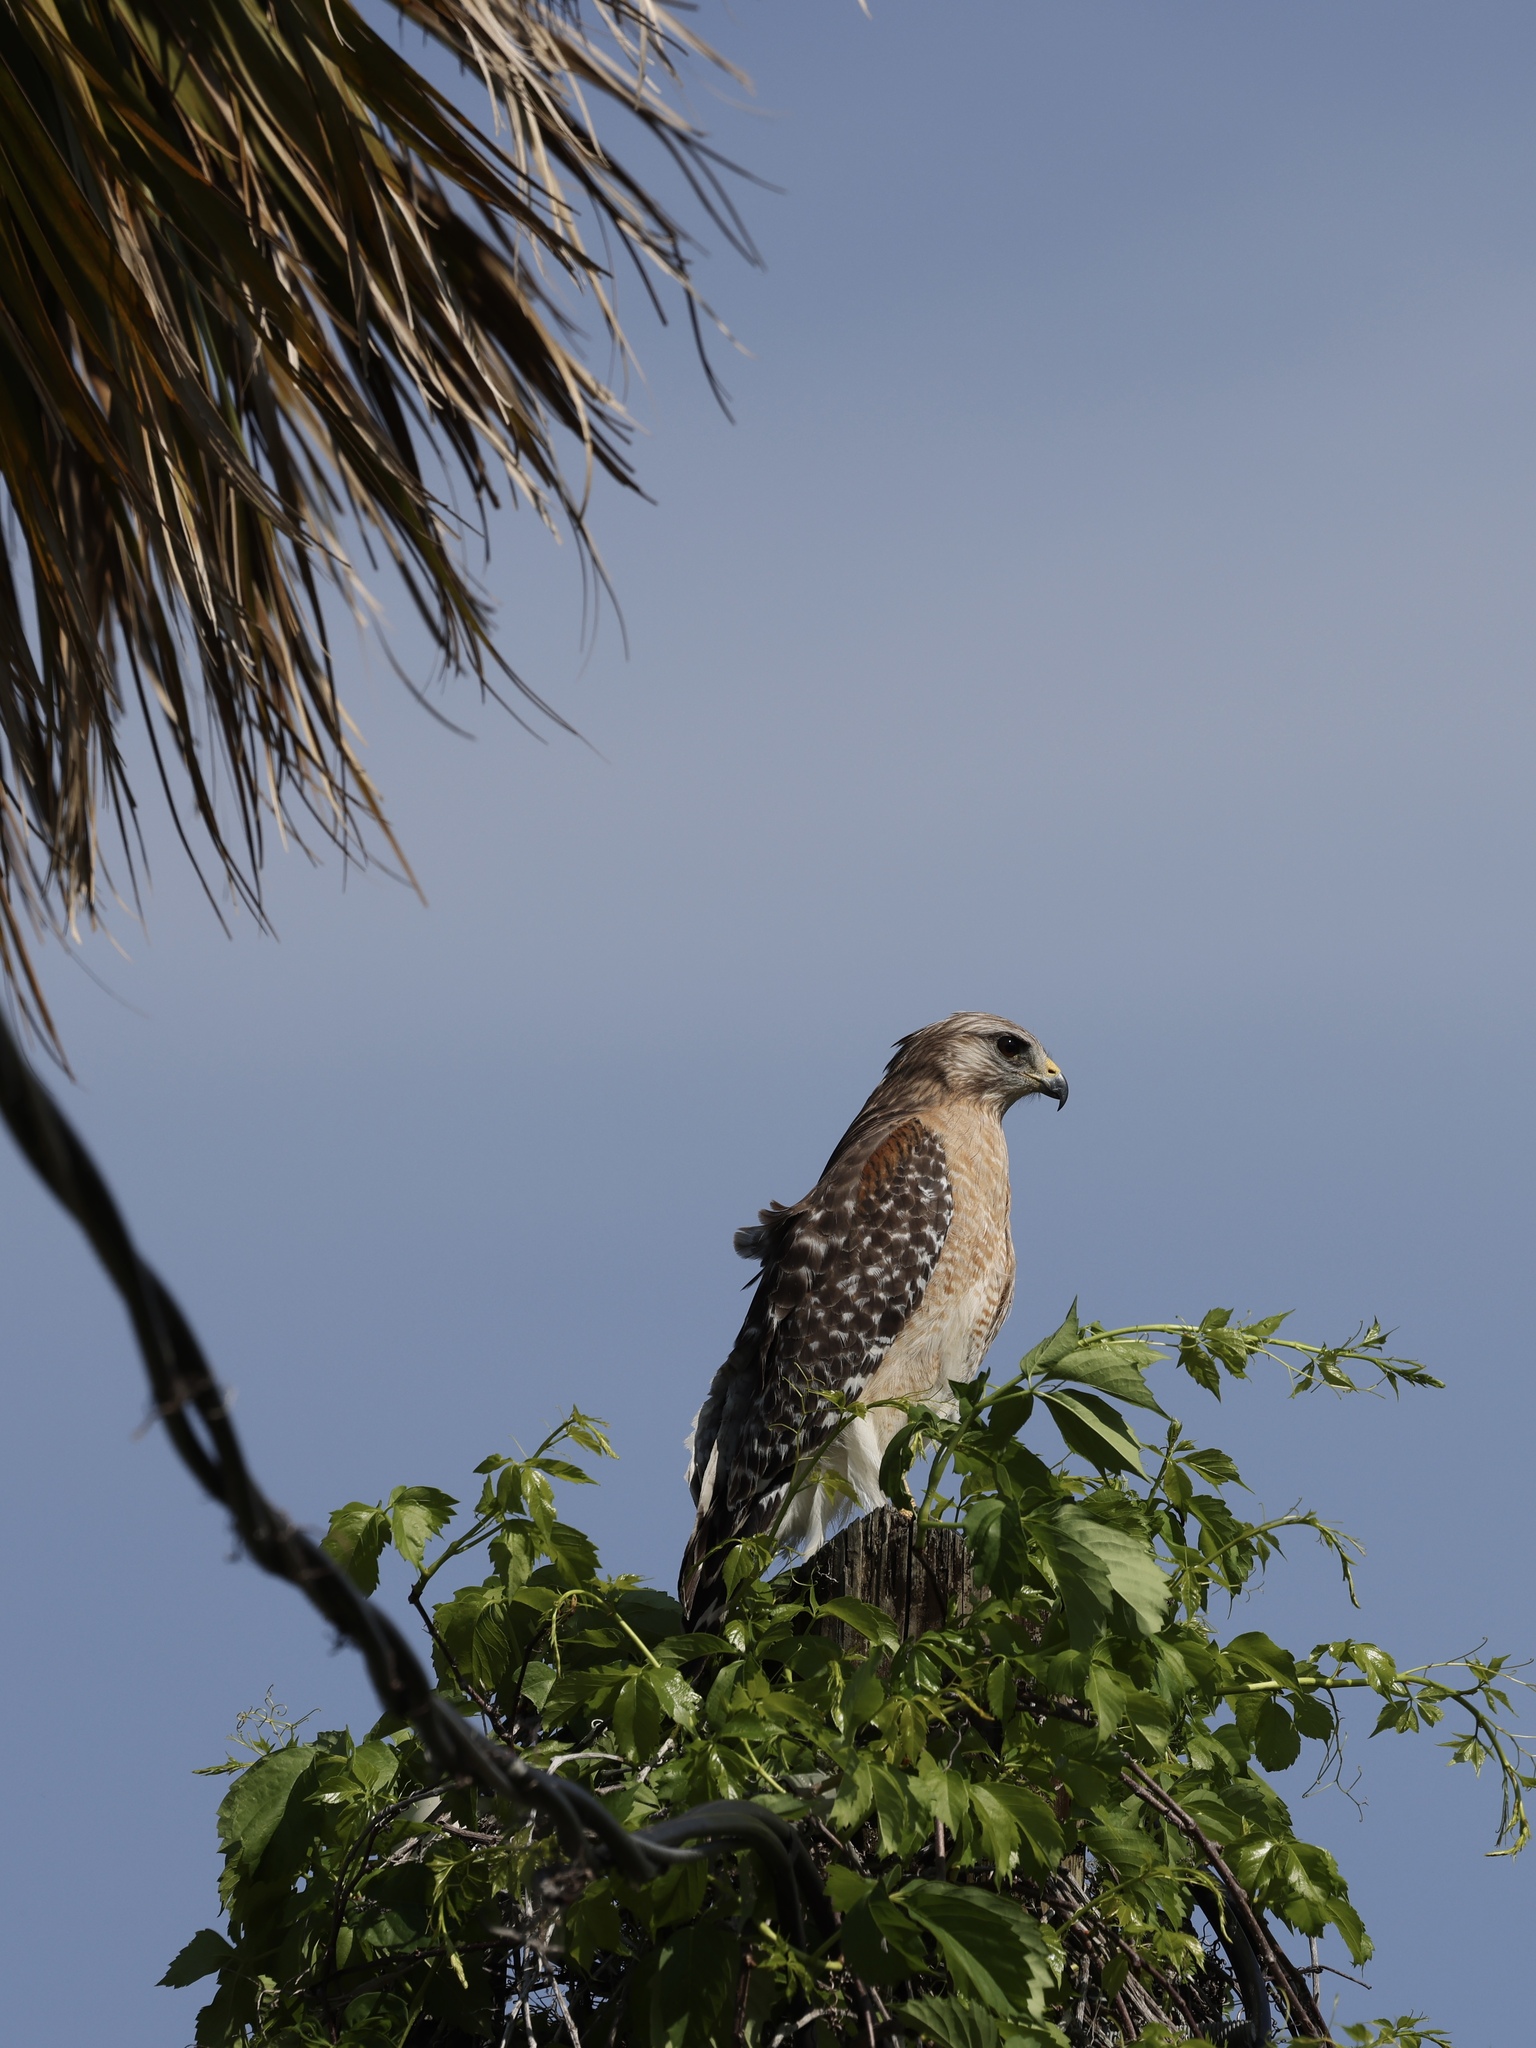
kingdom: Animalia
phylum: Chordata
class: Aves
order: Accipitriformes
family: Accipitridae
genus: Buteo
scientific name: Buteo lineatus
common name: Red-shouldered hawk
